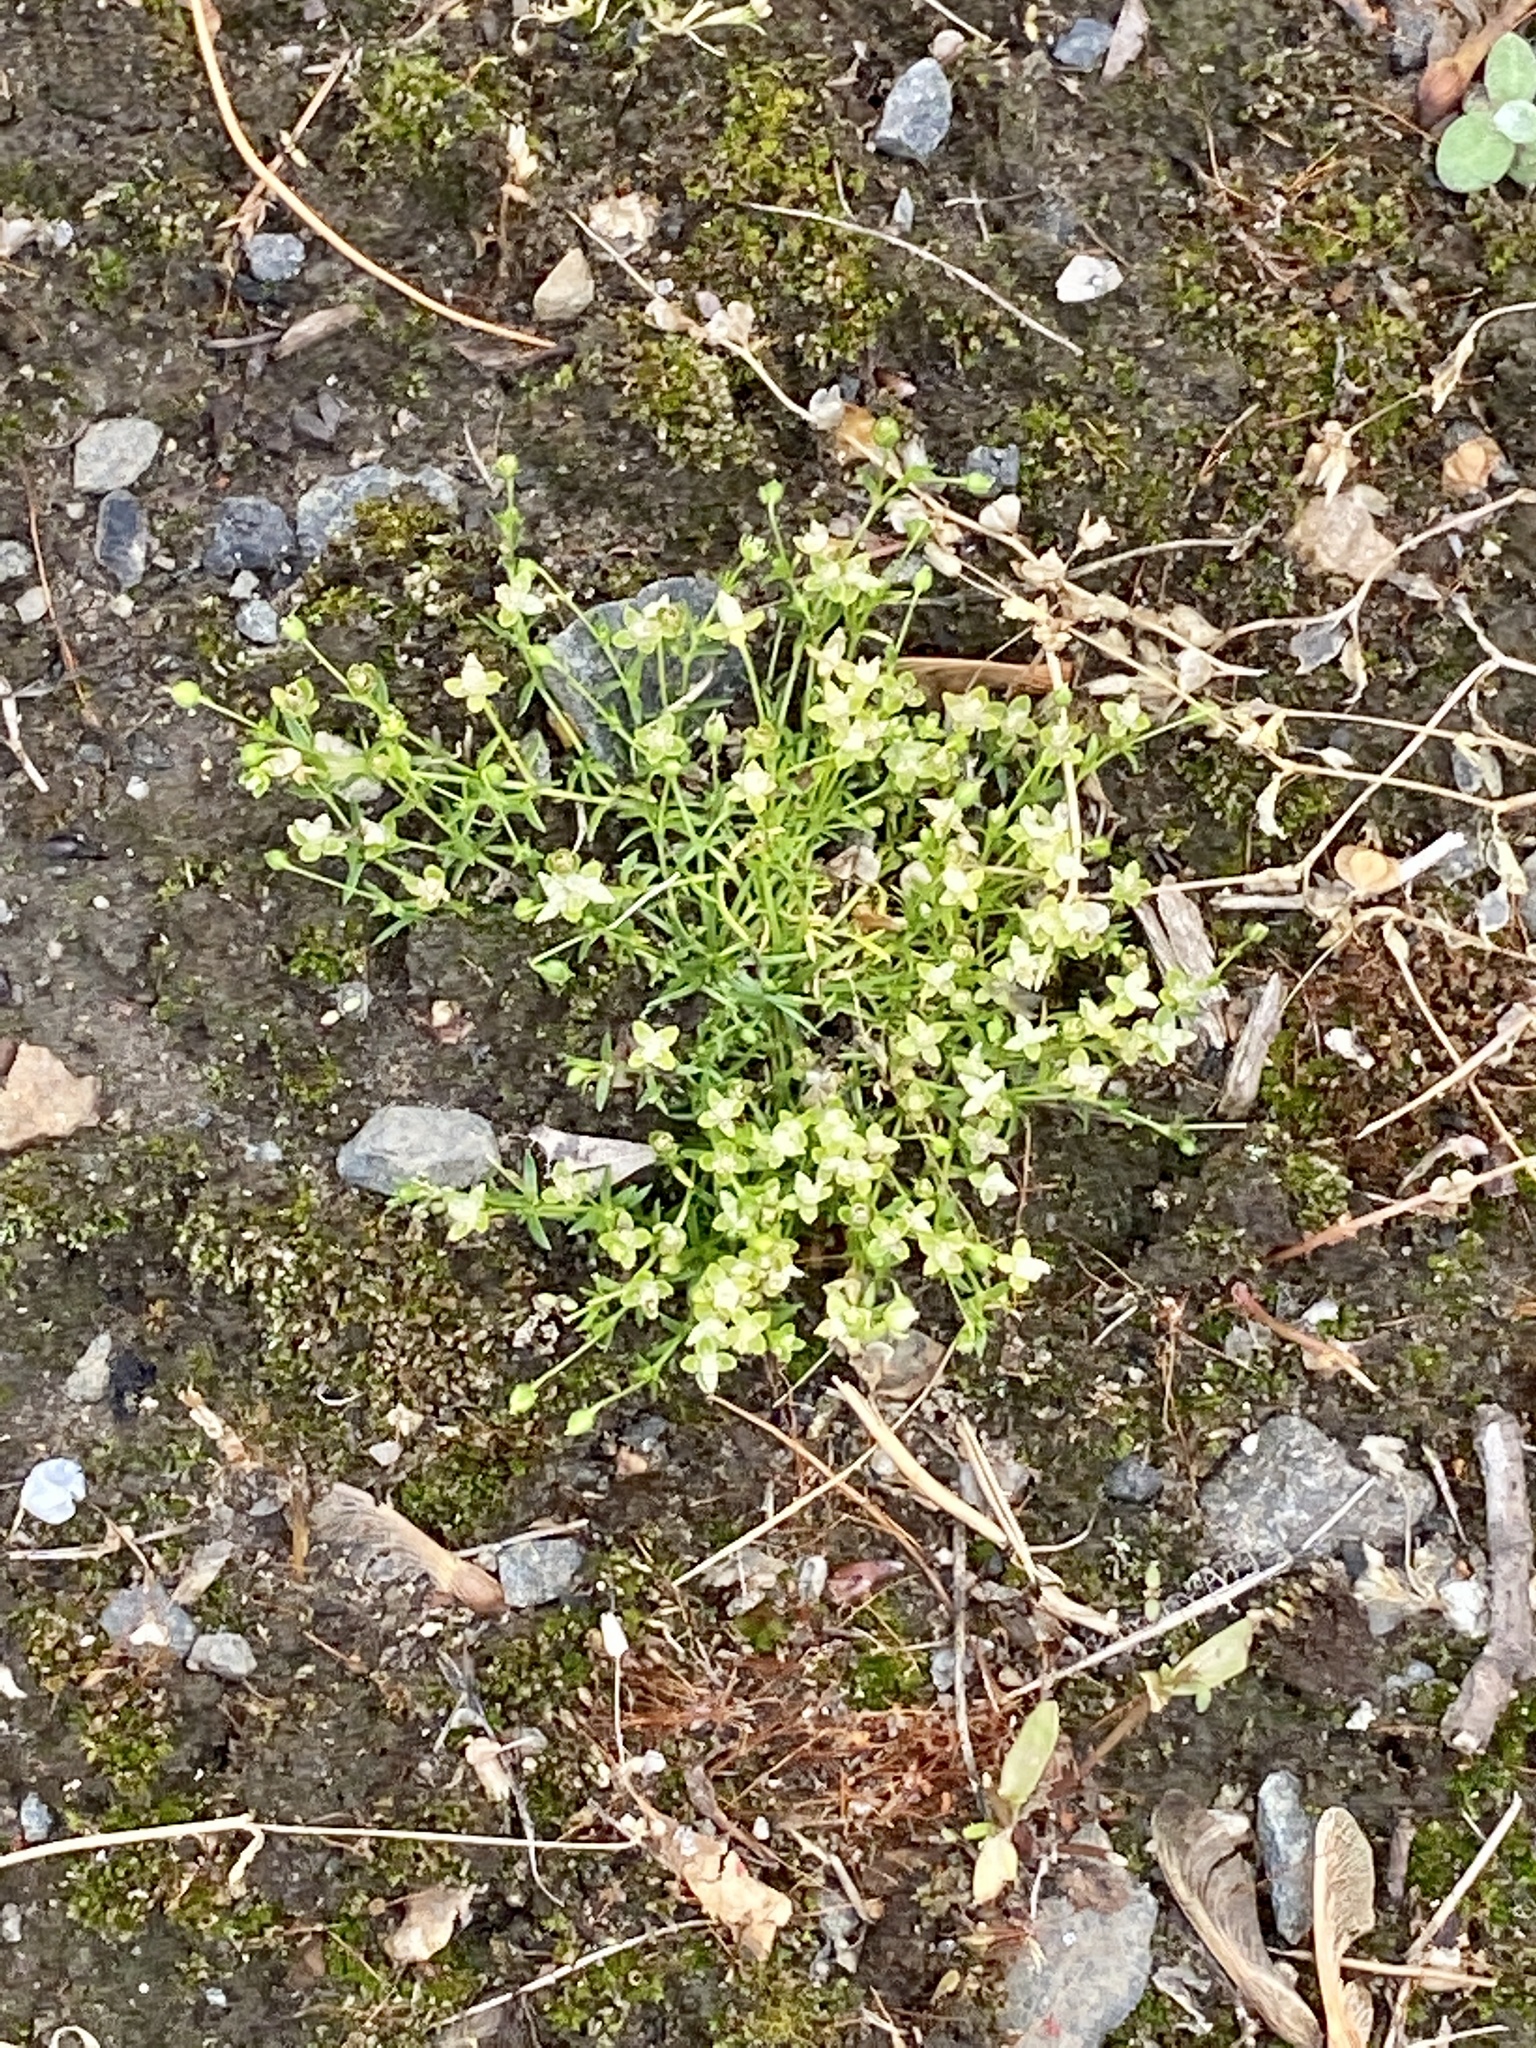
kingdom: Plantae
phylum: Tracheophyta
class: Magnoliopsida
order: Caryophyllales
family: Caryophyllaceae
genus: Sagina
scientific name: Sagina procumbens
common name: Procumbent pearlwort
